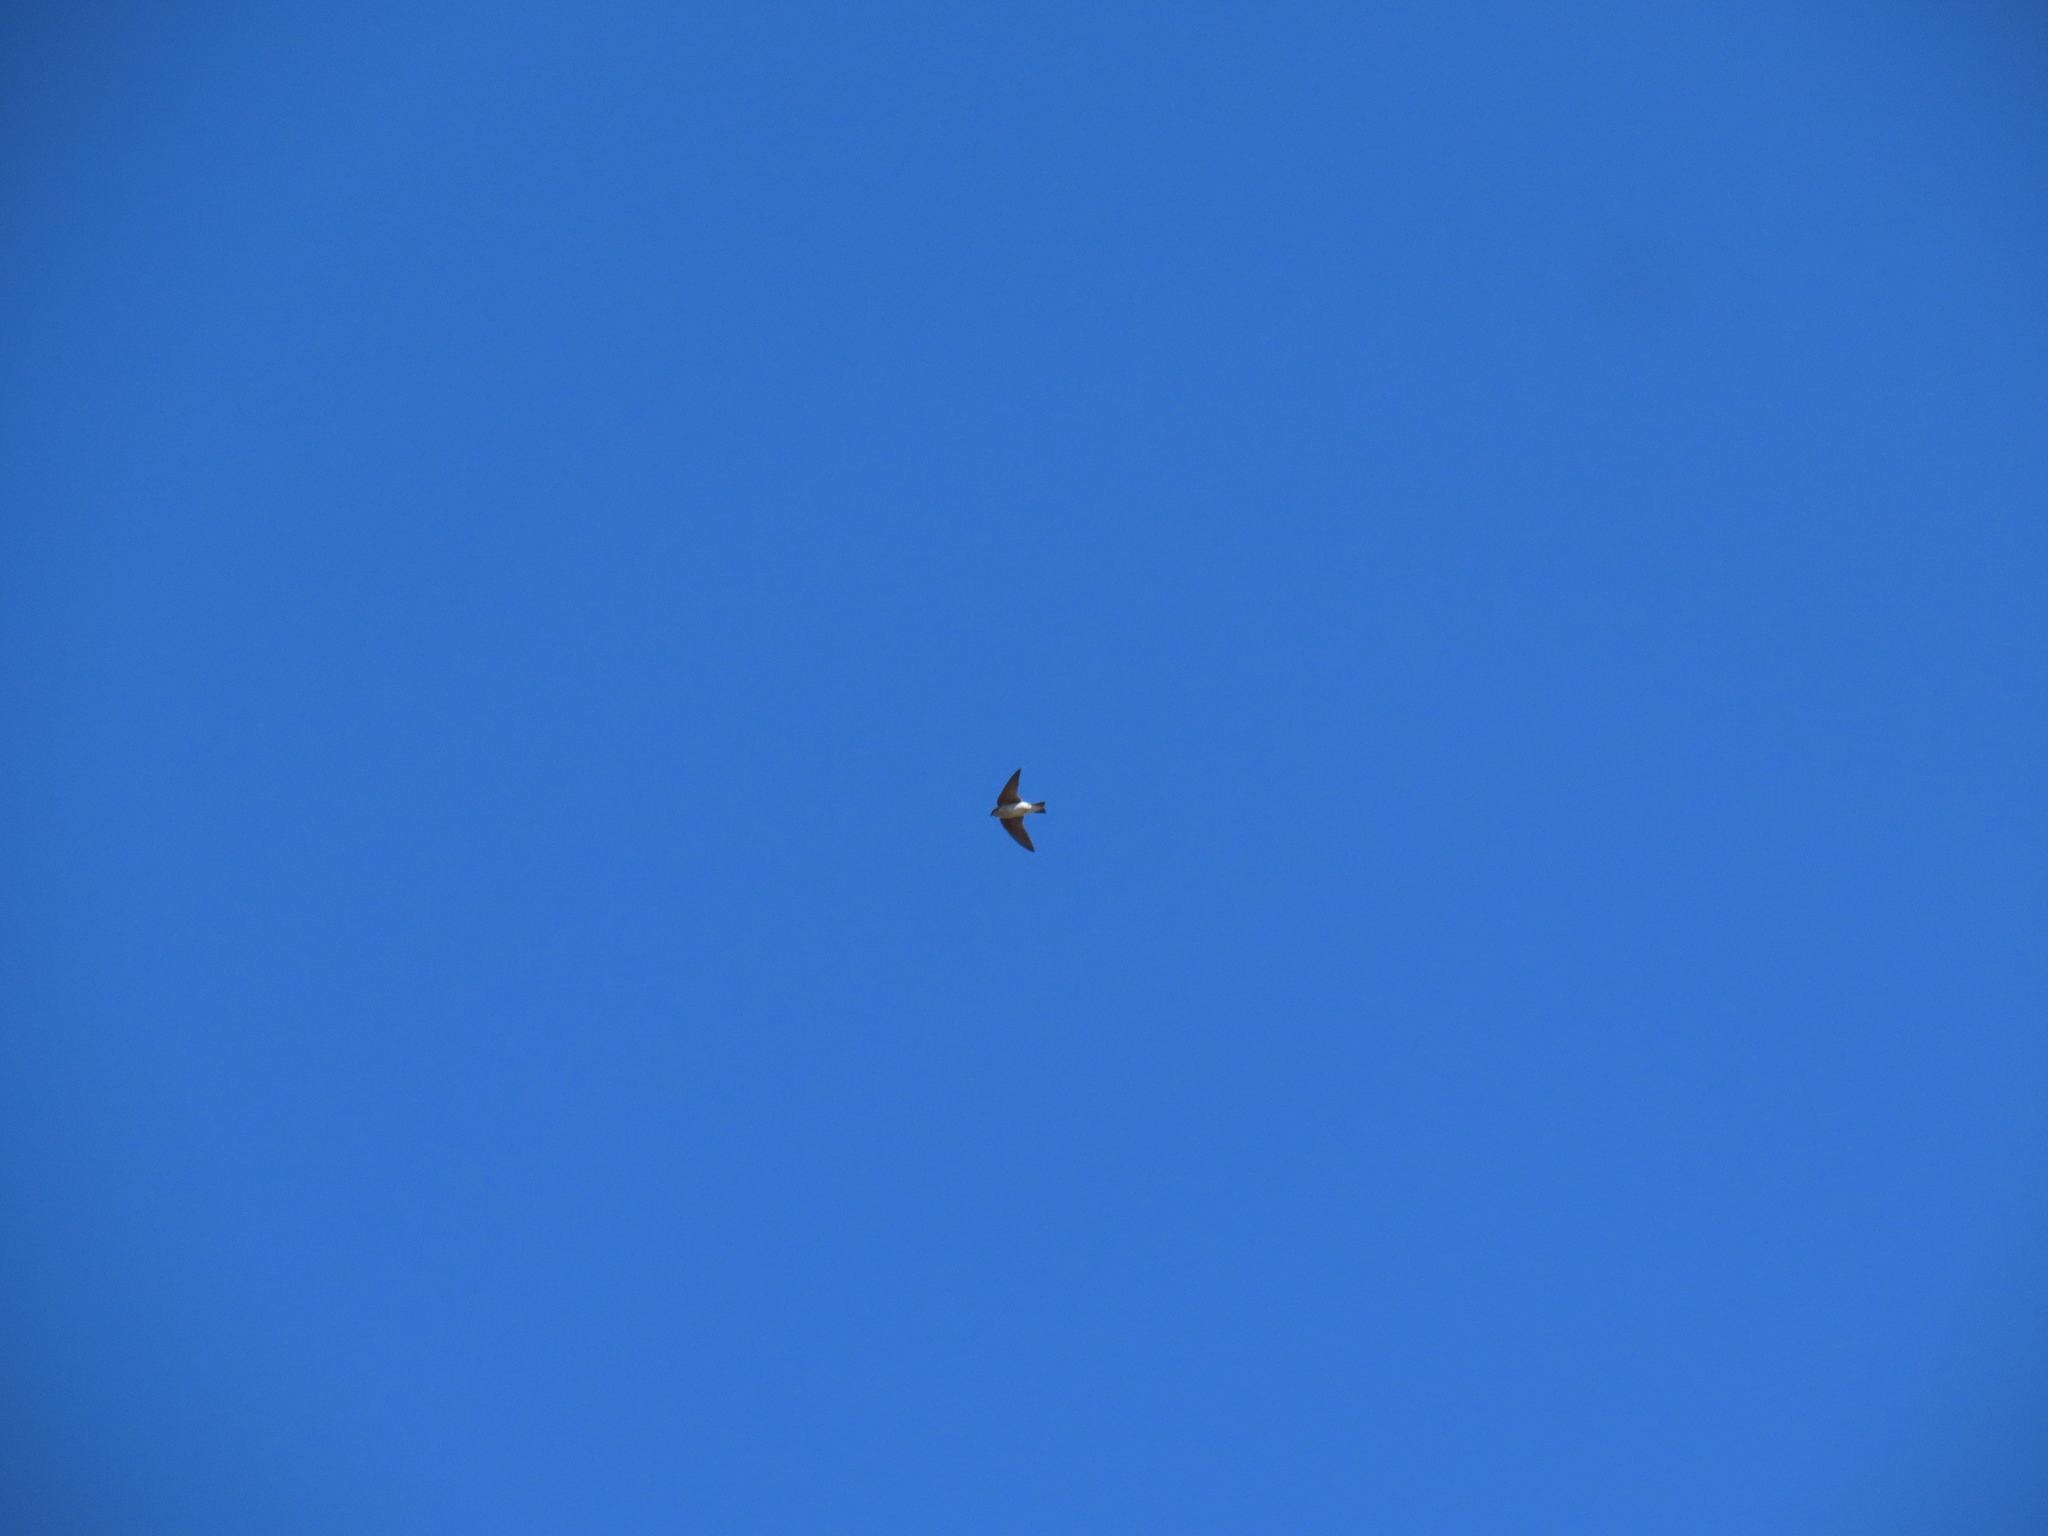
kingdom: Animalia
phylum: Chordata
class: Aves
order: Passeriformes
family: Hirundinidae
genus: Tachycineta
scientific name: Tachycineta thalassina
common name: Violet-green swallow
